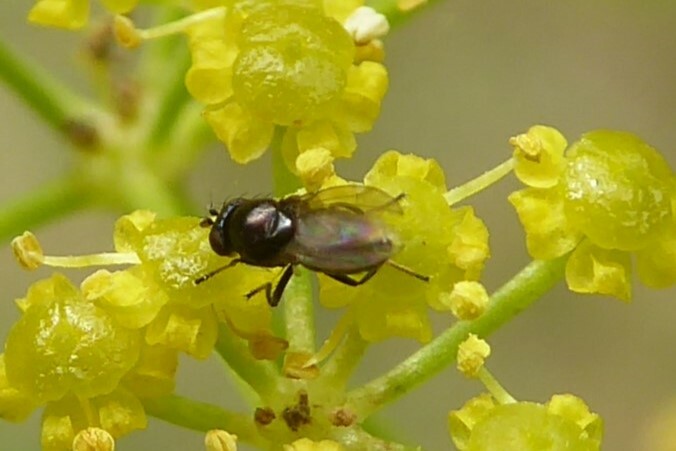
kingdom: Animalia
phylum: Arthropoda
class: Insecta
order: Diptera
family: Ephydridae
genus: Diasemocera
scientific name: Diasemocera metallica
